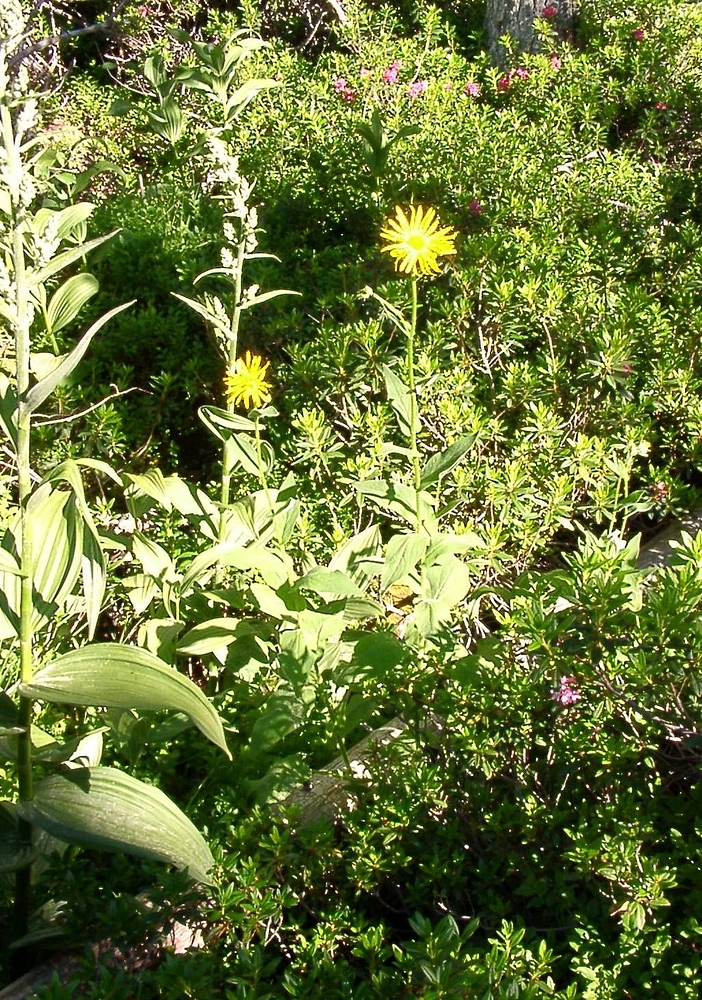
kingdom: Plantae
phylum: Tracheophyta
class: Magnoliopsida
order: Asterales
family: Asteraceae
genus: Doronicum
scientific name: Doronicum austriacum
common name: Austrian leopard's-bane
